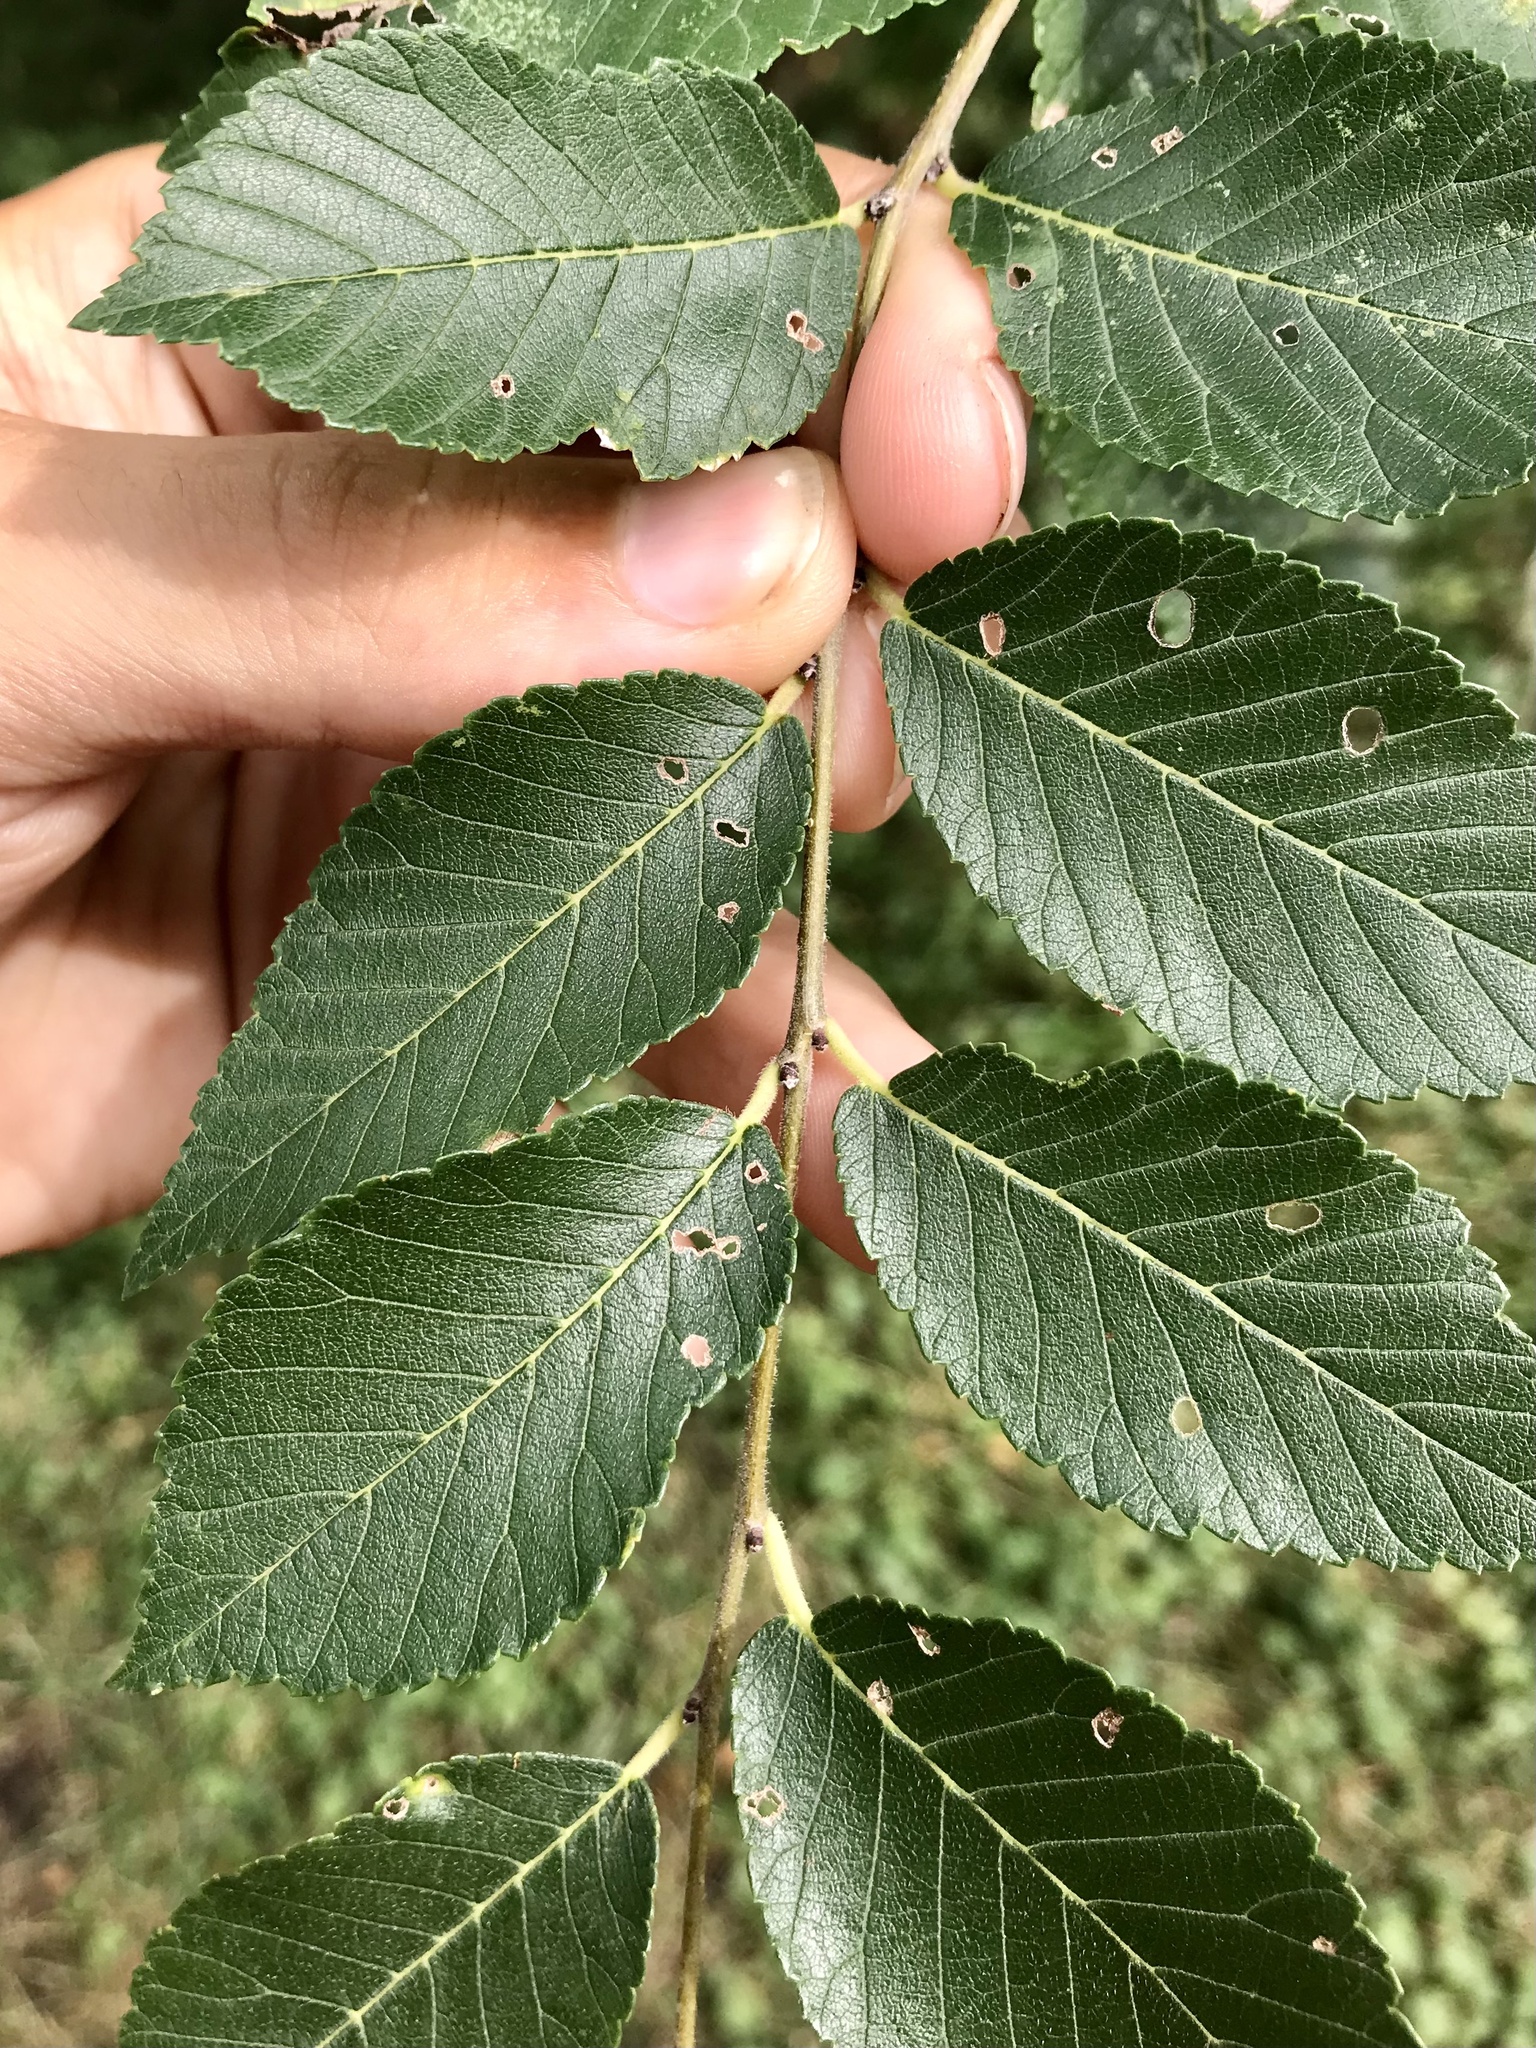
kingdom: Plantae
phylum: Tracheophyta
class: Magnoliopsida
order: Rosales
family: Ulmaceae
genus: Ulmus
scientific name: Ulmus pumila
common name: Siberian elm
